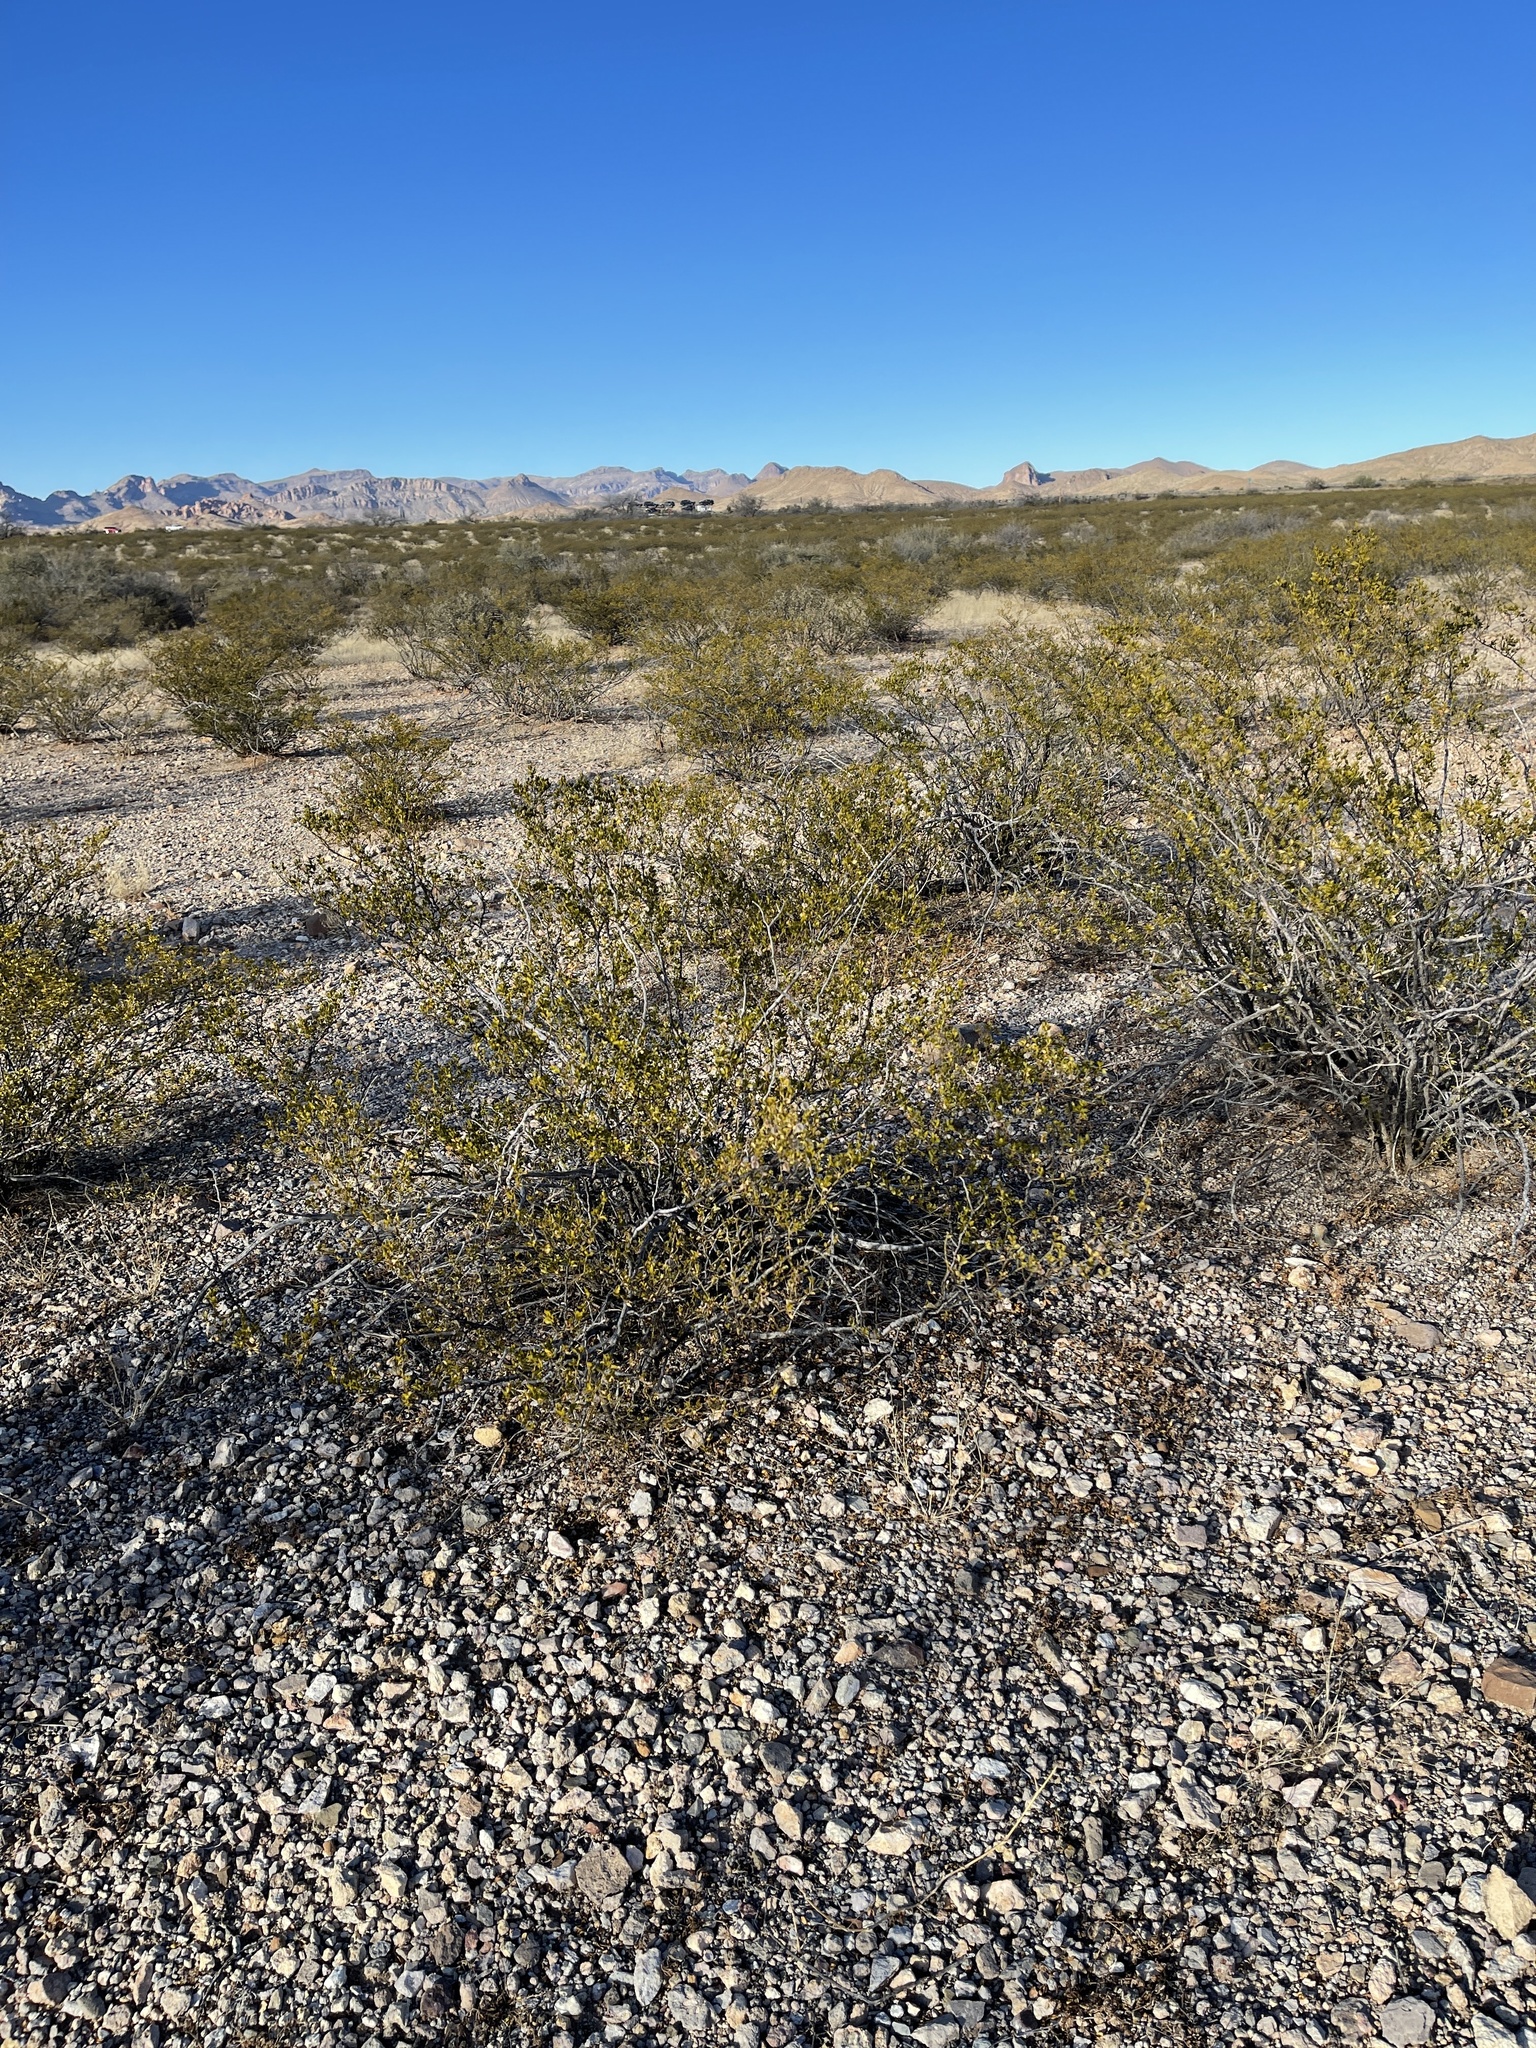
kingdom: Plantae
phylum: Tracheophyta
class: Magnoliopsida
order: Zygophyllales
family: Zygophyllaceae
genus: Larrea
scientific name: Larrea tridentata
